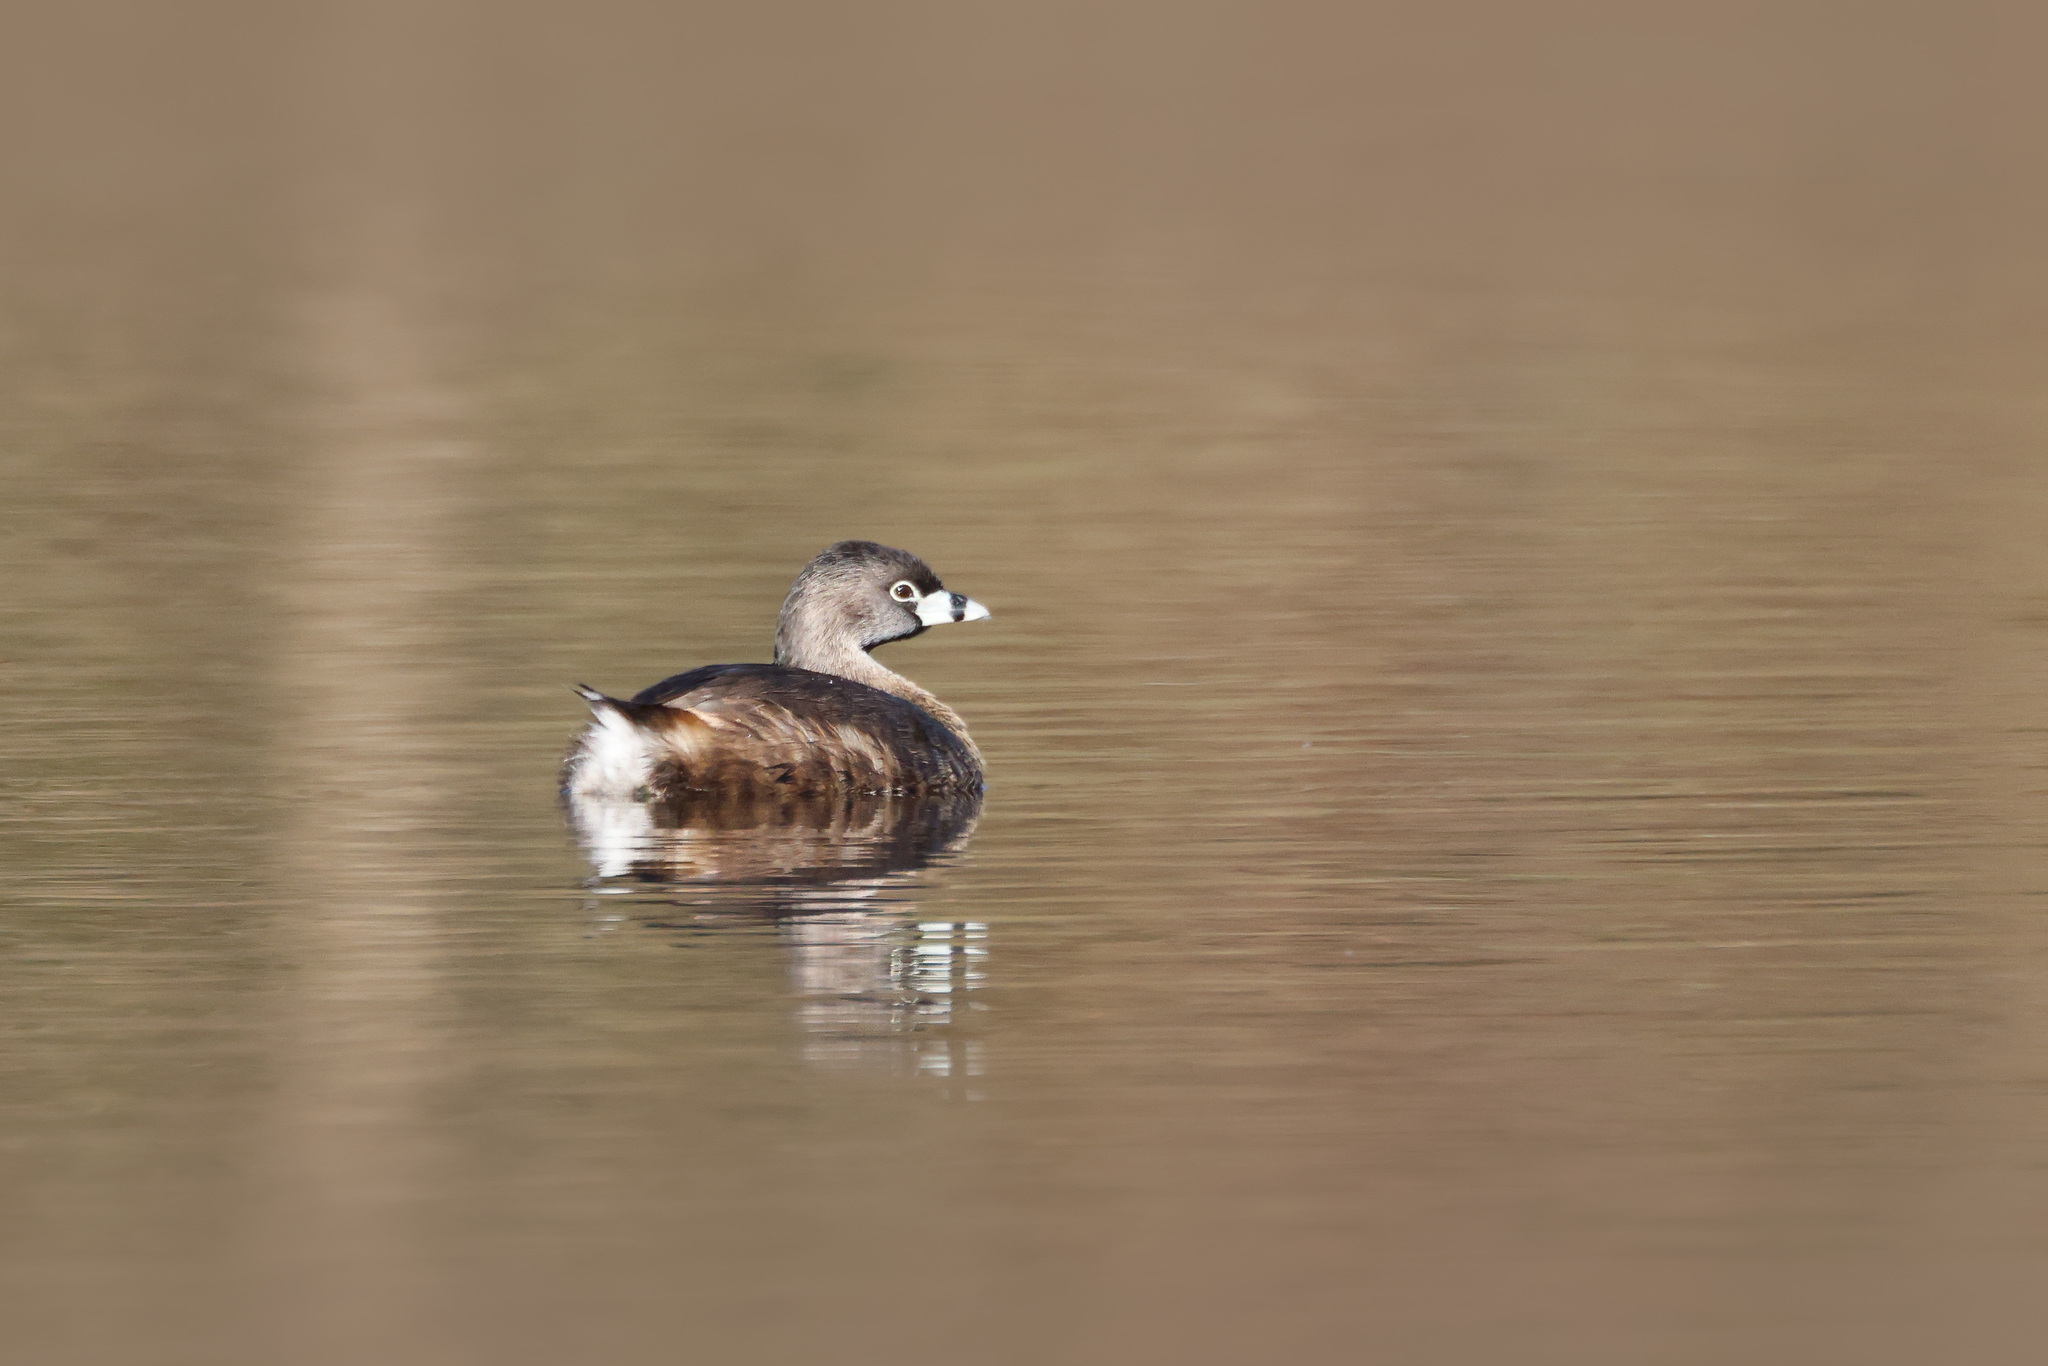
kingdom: Animalia
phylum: Chordata
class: Aves
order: Podicipediformes
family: Podicipedidae
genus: Podilymbus
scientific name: Podilymbus podiceps
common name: Pied-billed grebe
